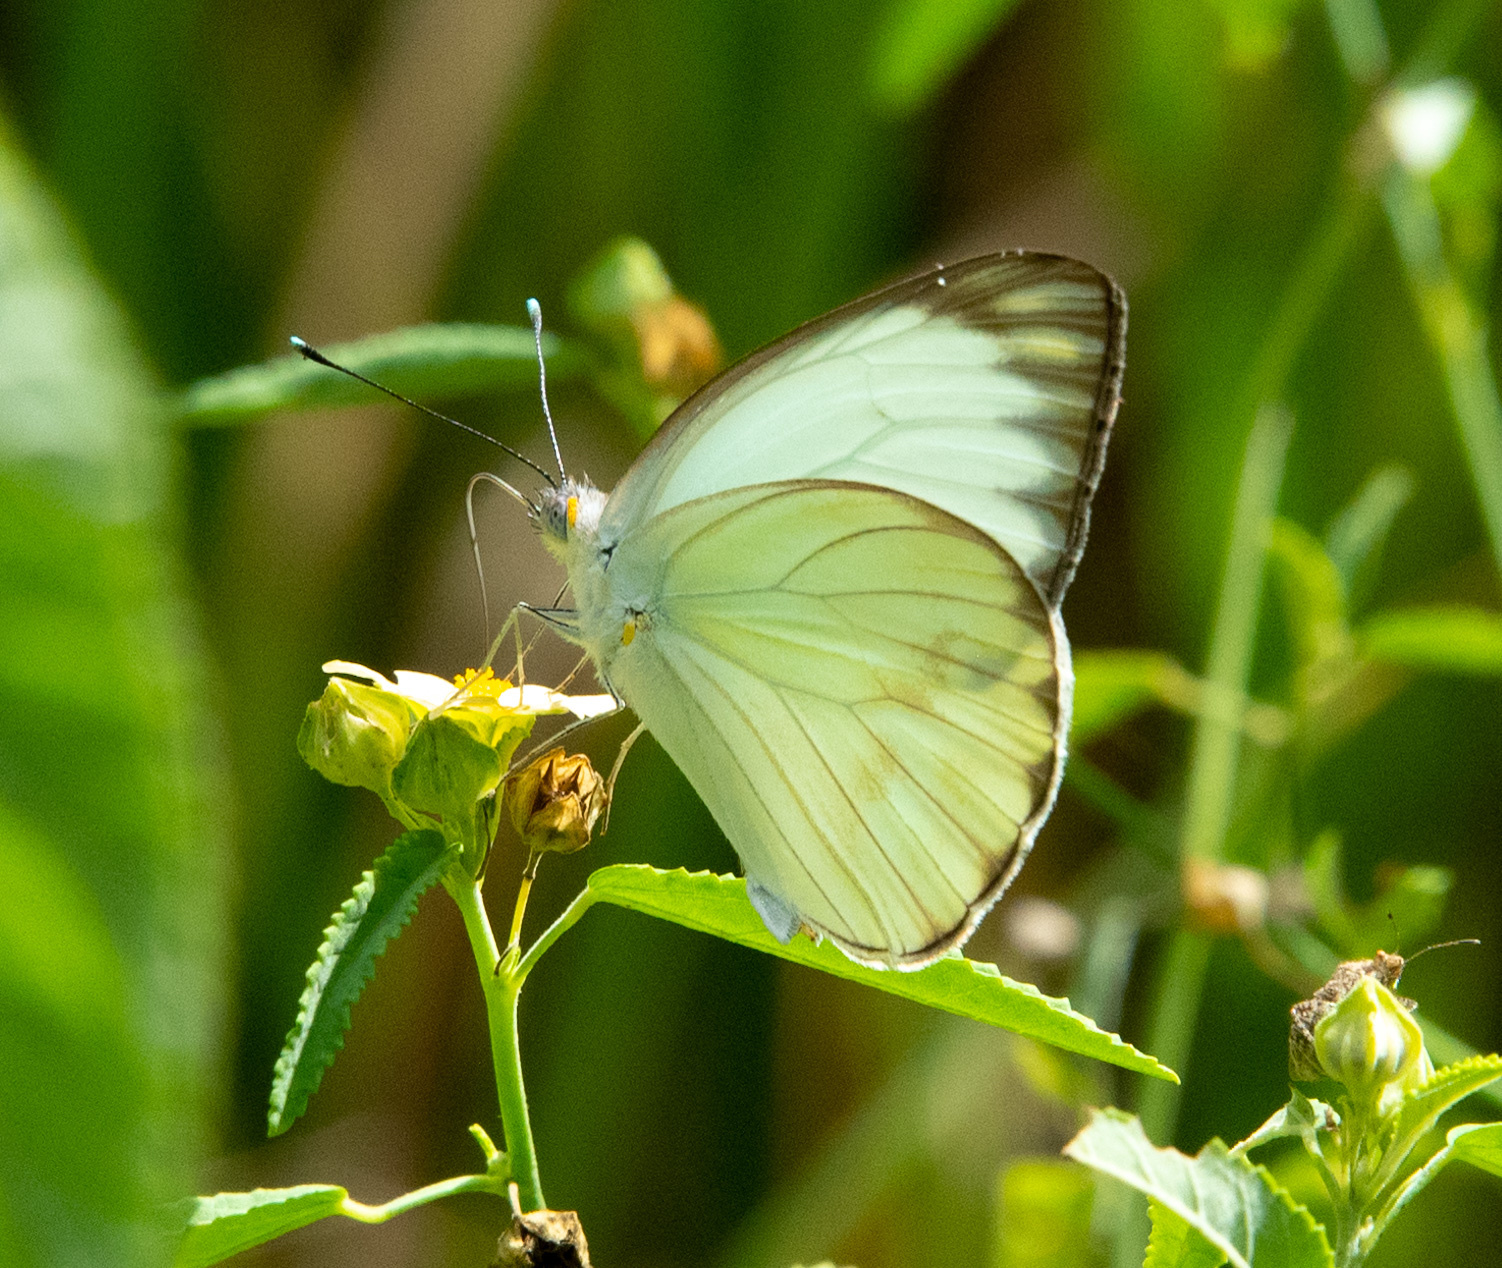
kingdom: Animalia
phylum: Arthropoda
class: Insecta
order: Lepidoptera
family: Pieridae
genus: Ascia
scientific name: Ascia monuste
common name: Great southern white
